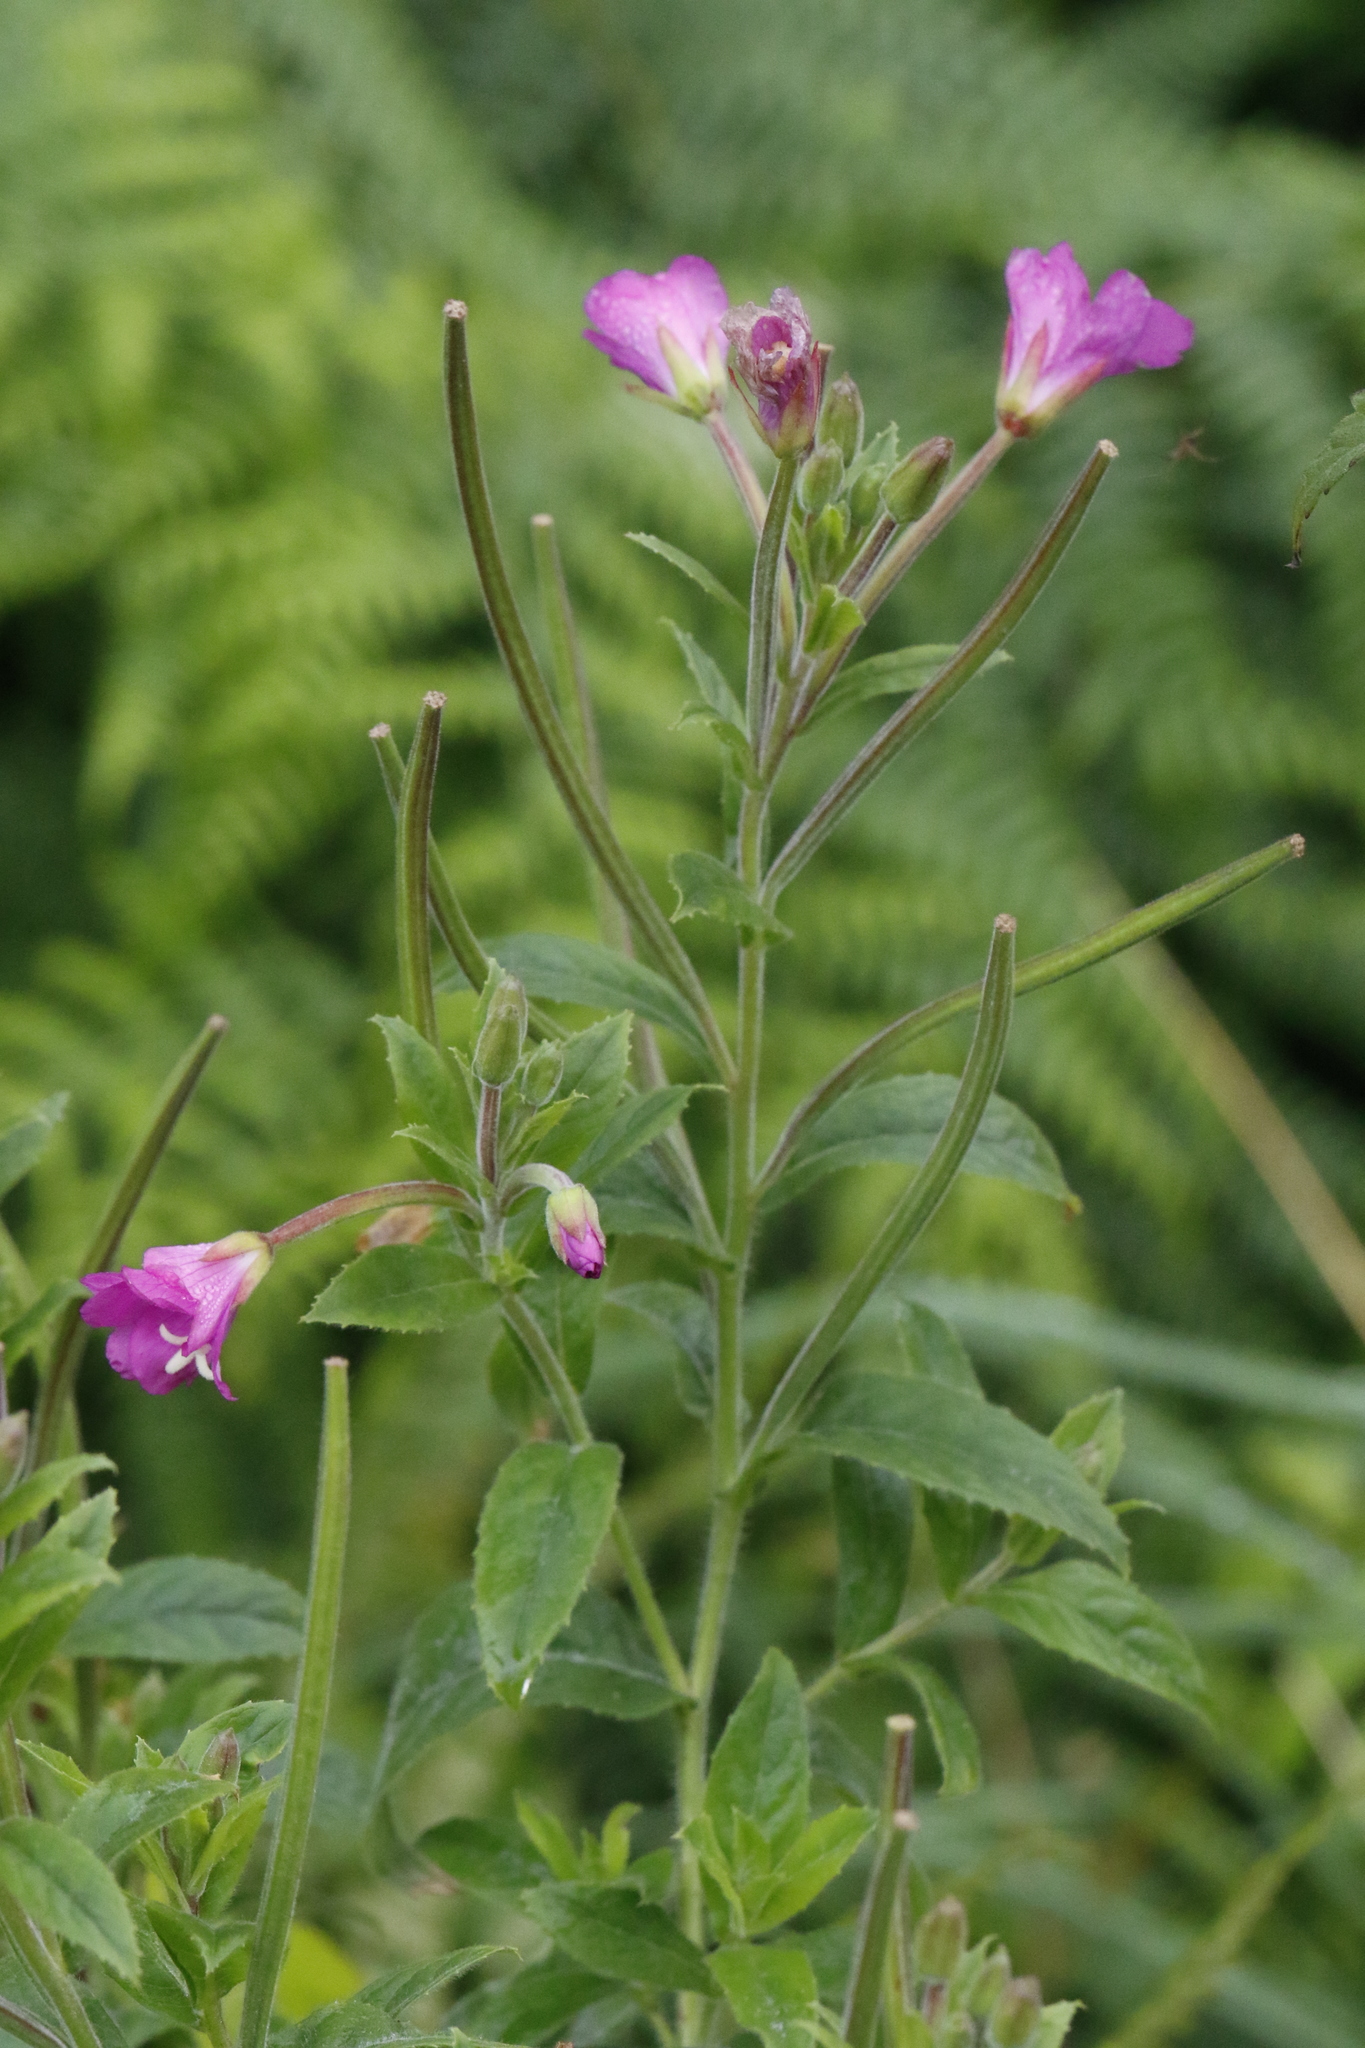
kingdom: Plantae
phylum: Tracheophyta
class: Magnoliopsida
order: Myrtales
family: Onagraceae
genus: Epilobium
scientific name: Epilobium hirsutum
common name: Great willowherb
